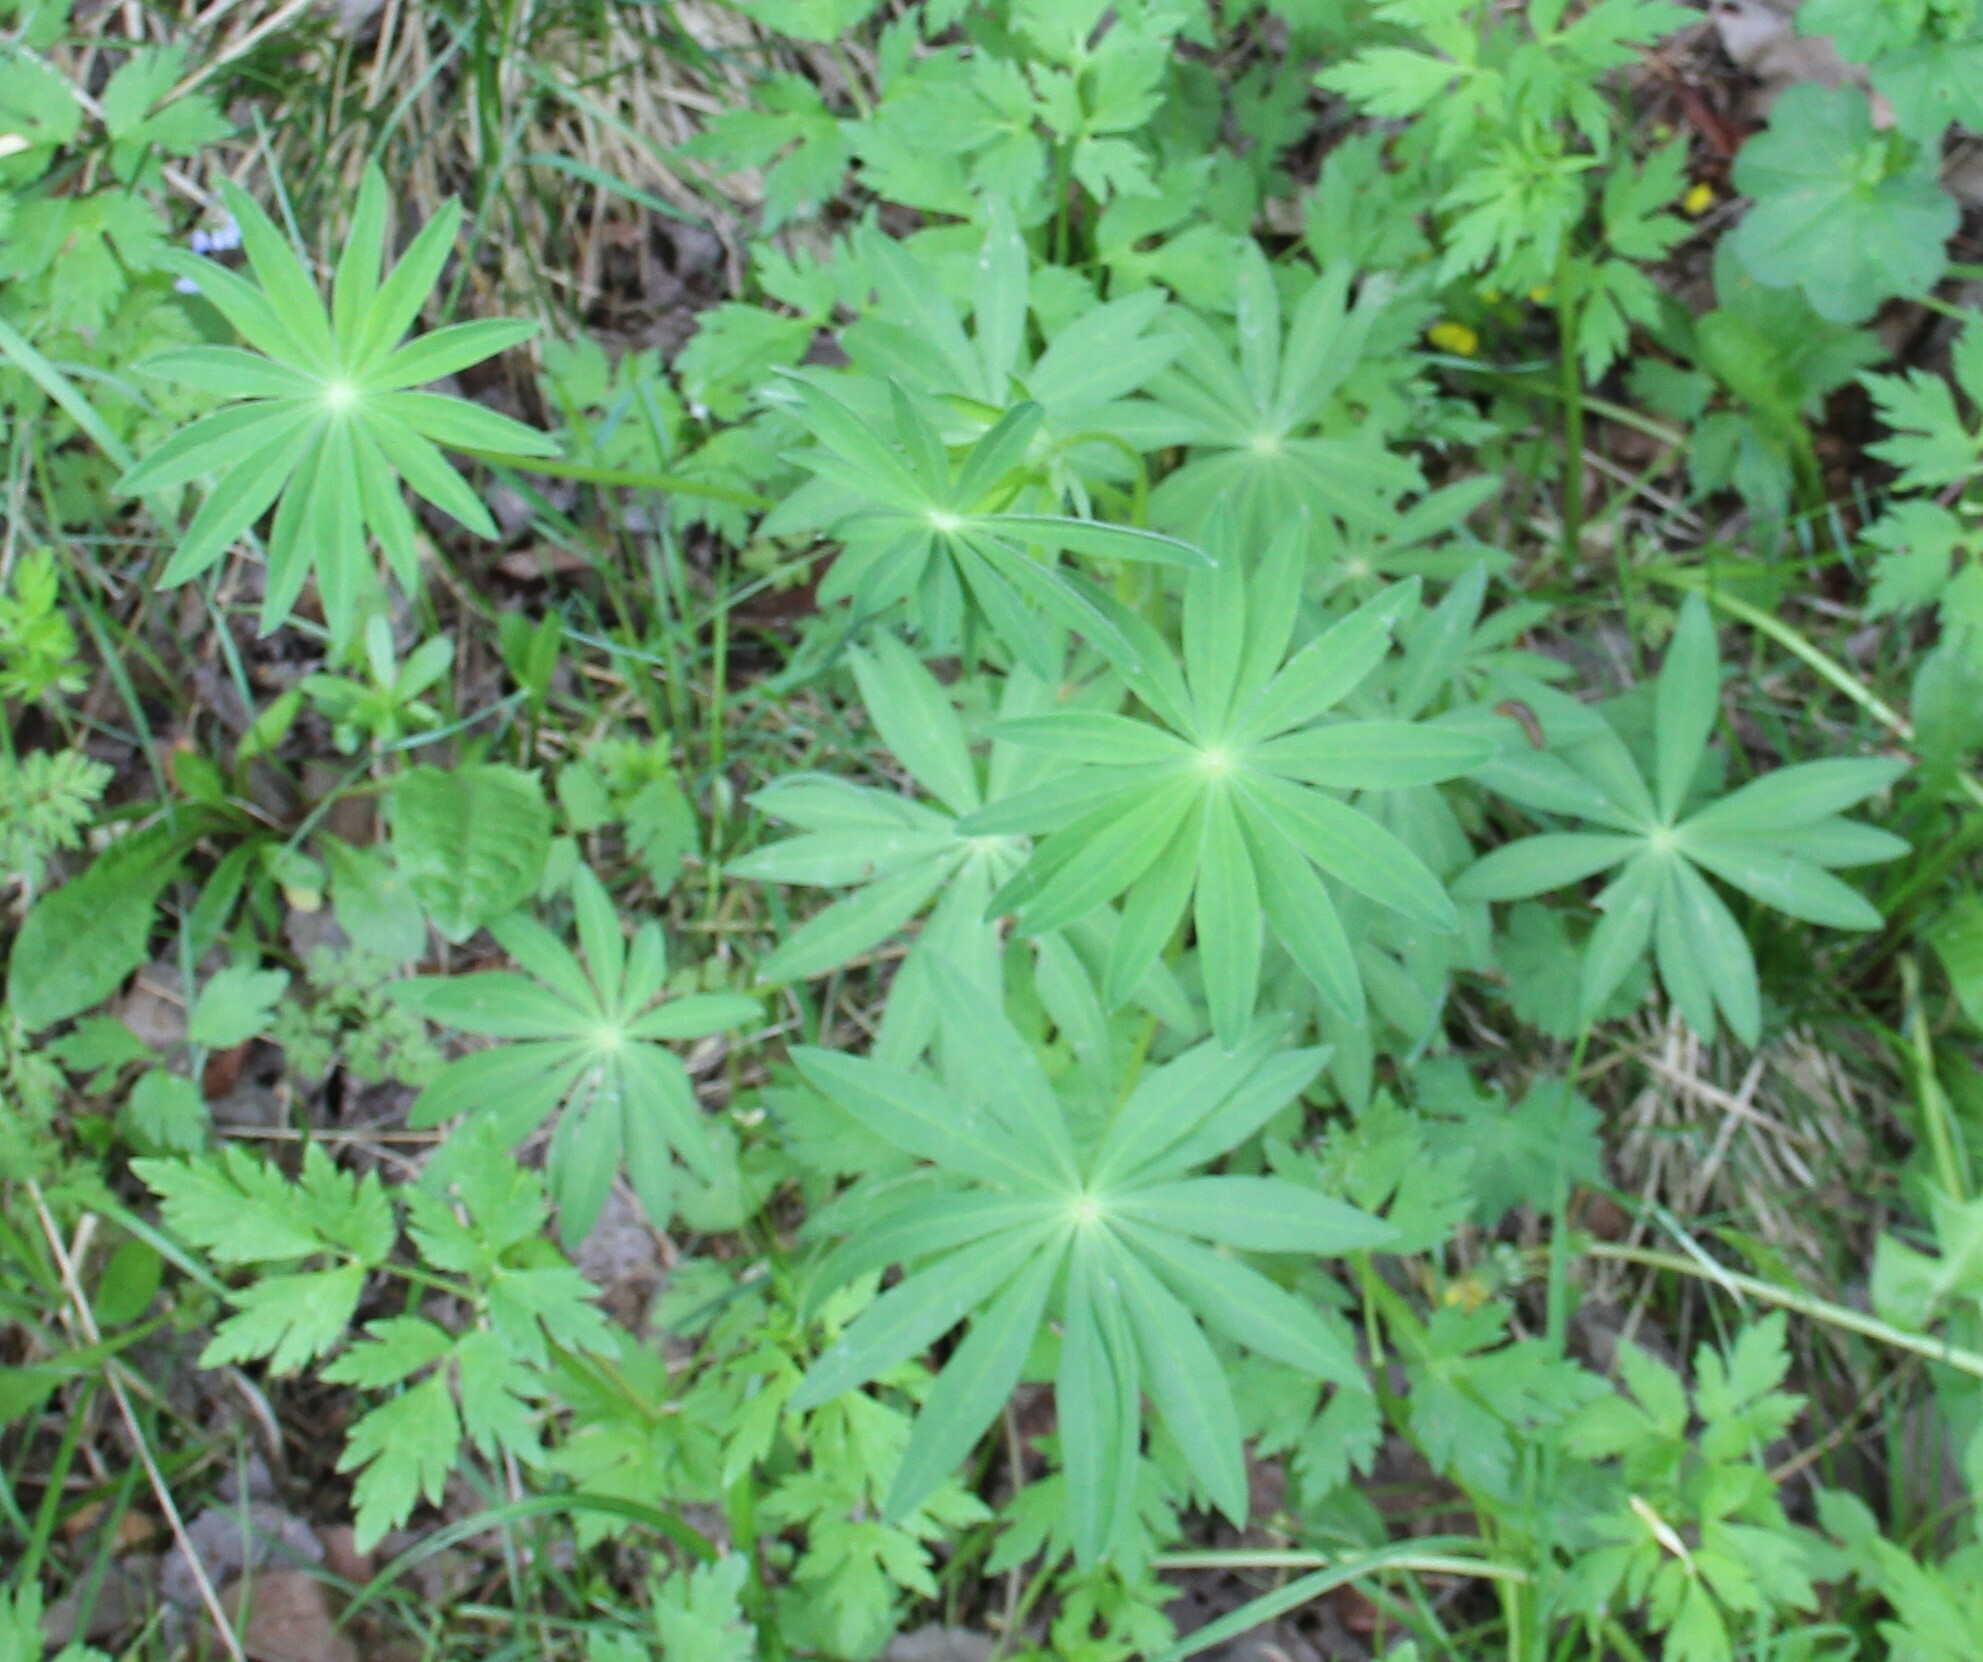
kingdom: Plantae
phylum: Tracheophyta
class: Magnoliopsida
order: Fabales
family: Fabaceae
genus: Lupinus
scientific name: Lupinus polyphyllus
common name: Garden lupin
